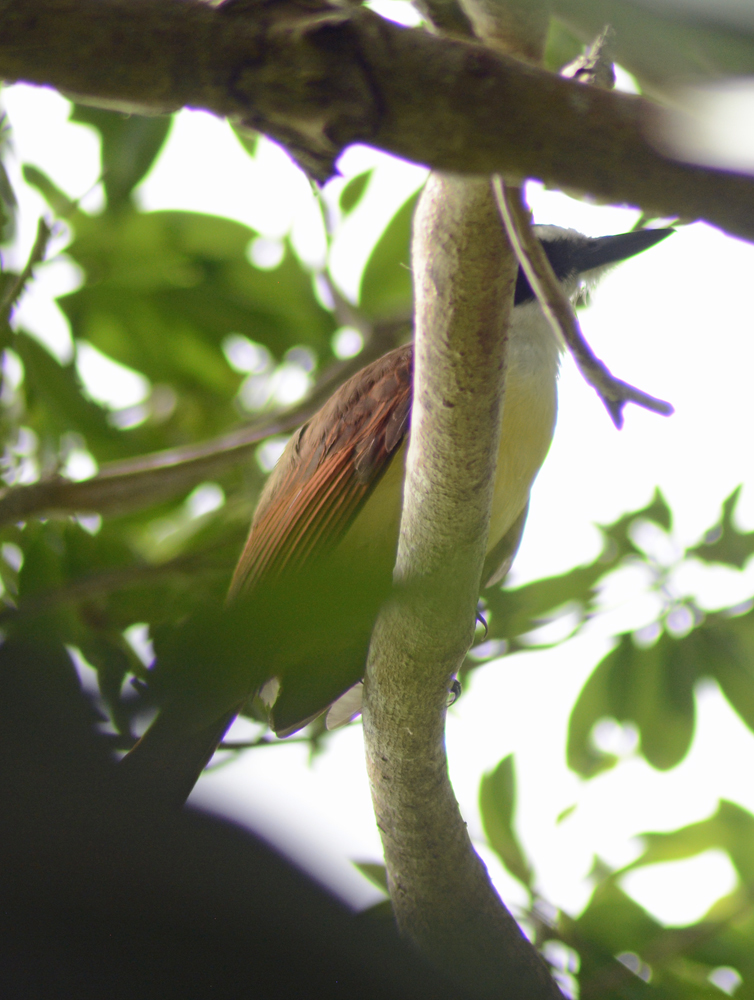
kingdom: Animalia
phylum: Chordata
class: Aves
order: Passeriformes
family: Tyrannidae
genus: Pitangus
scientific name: Pitangus sulphuratus
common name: Great kiskadee
